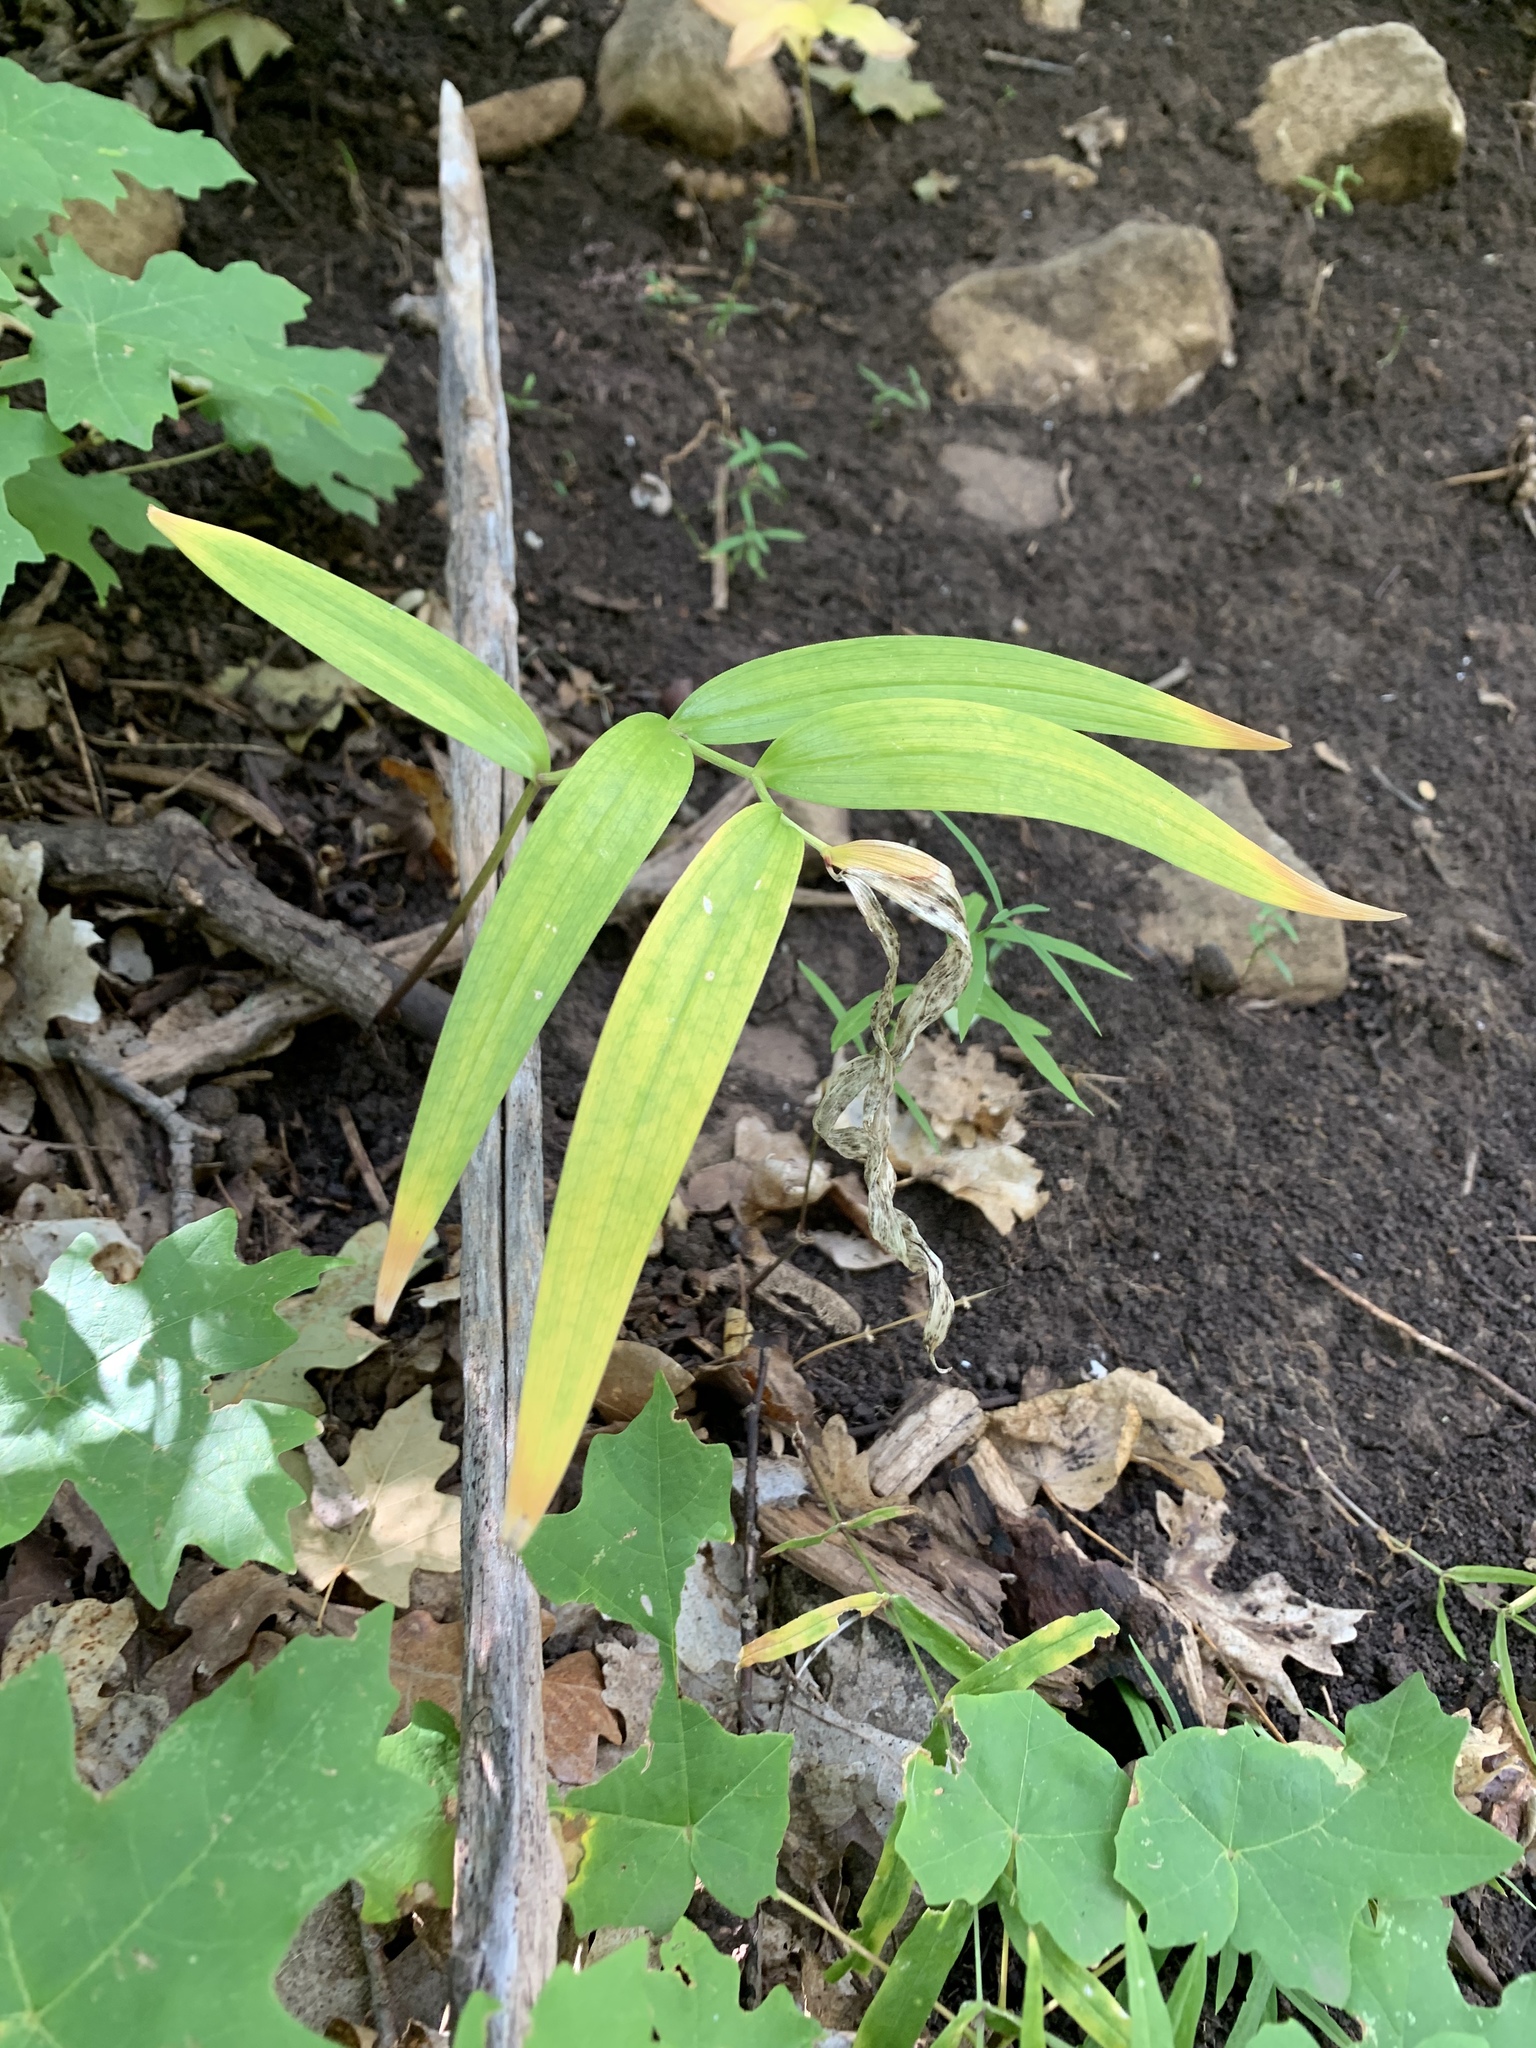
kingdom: Plantae
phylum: Tracheophyta
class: Liliopsida
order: Asparagales
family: Asparagaceae
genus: Maianthemum
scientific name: Maianthemum stellatum
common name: Little false solomon's seal
